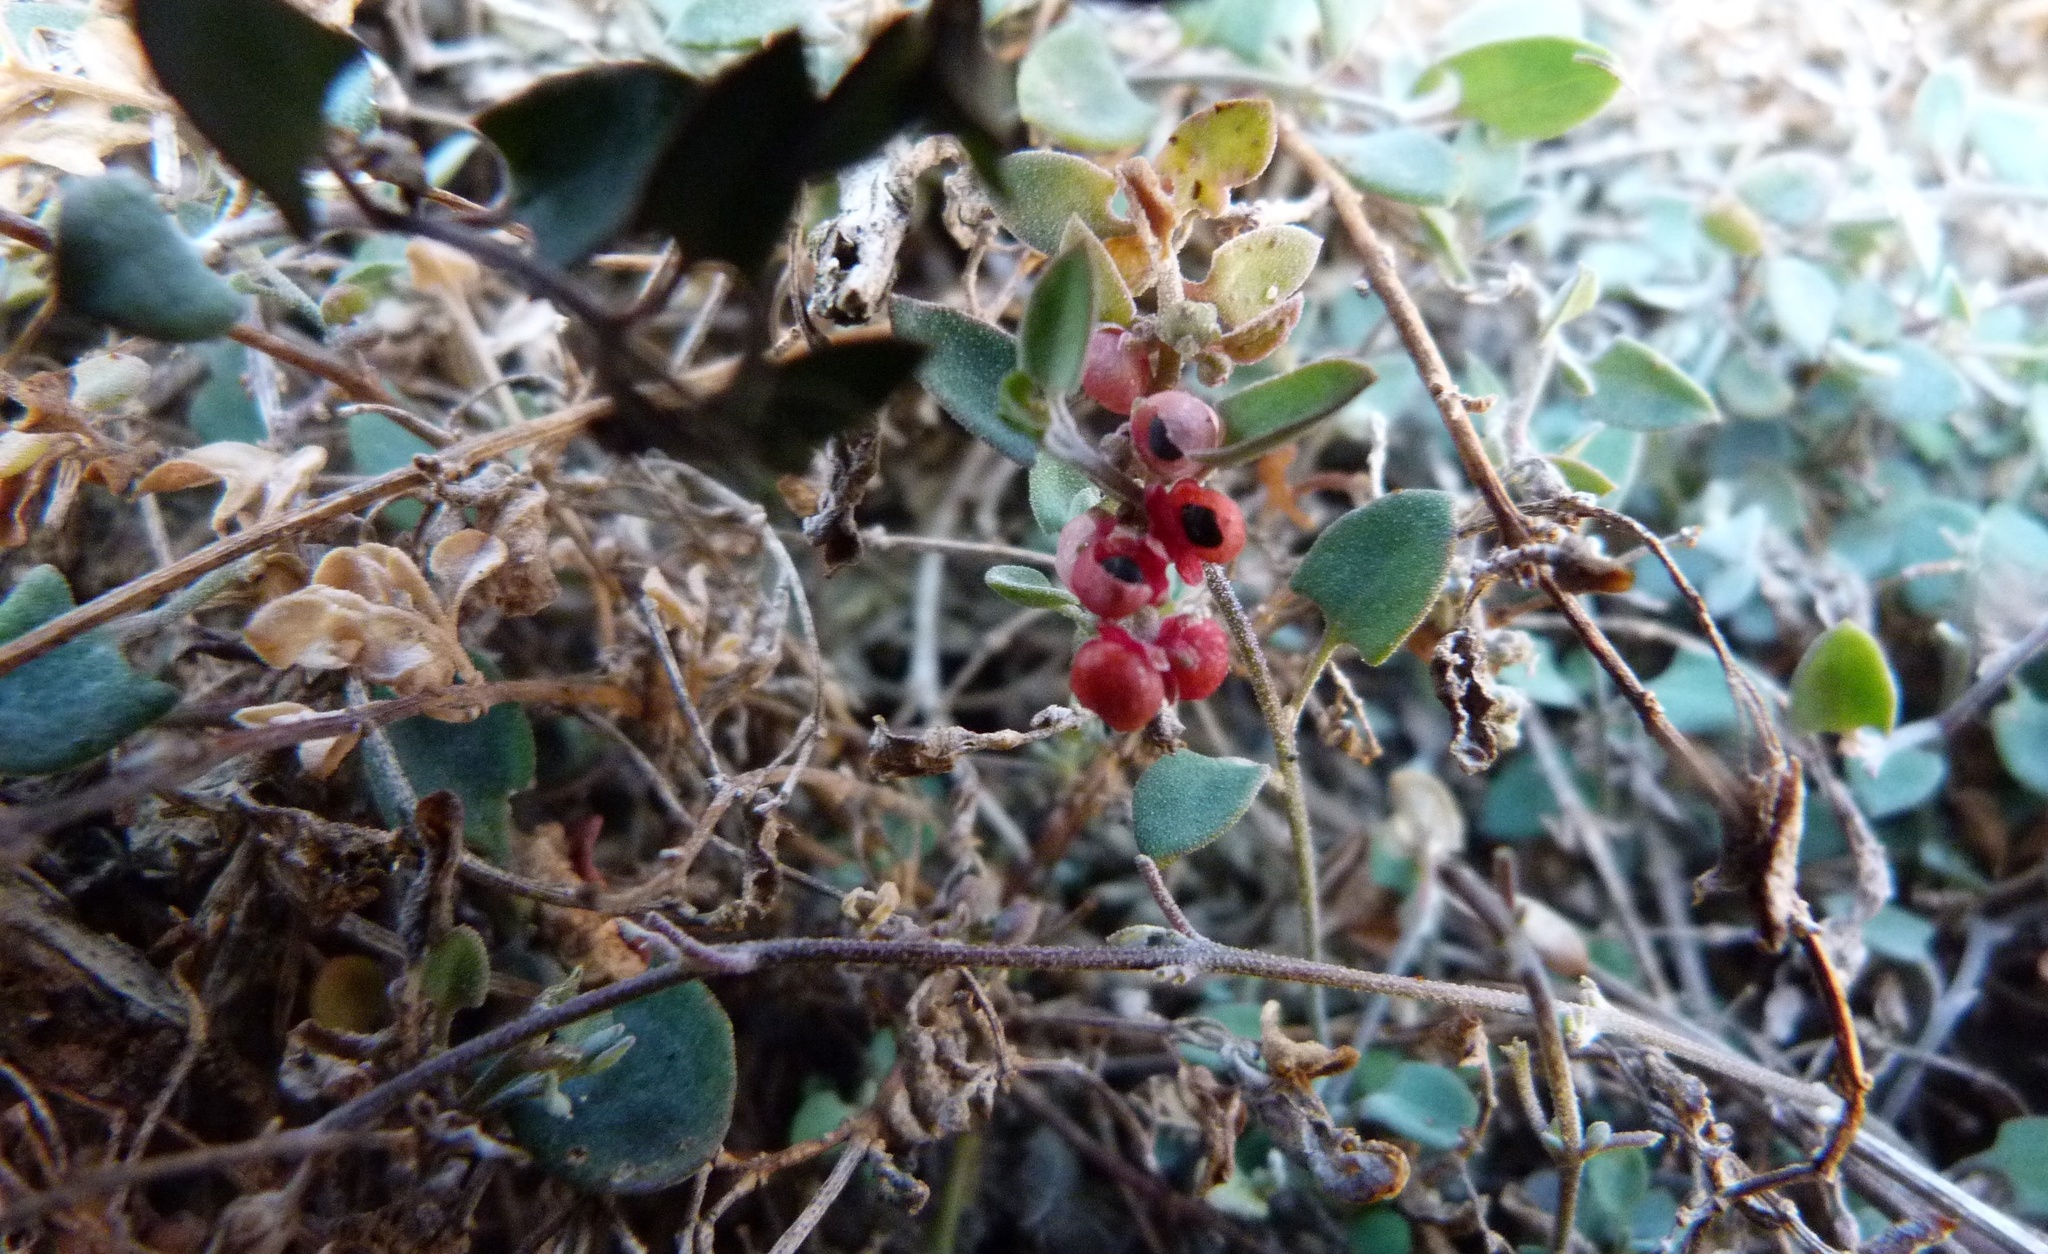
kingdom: Plantae
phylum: Tracheophyta
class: Magnoliopsida
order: Caryophyllales
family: Amaranthaceae
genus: Chenopodium
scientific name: Chenopodium triandrum
